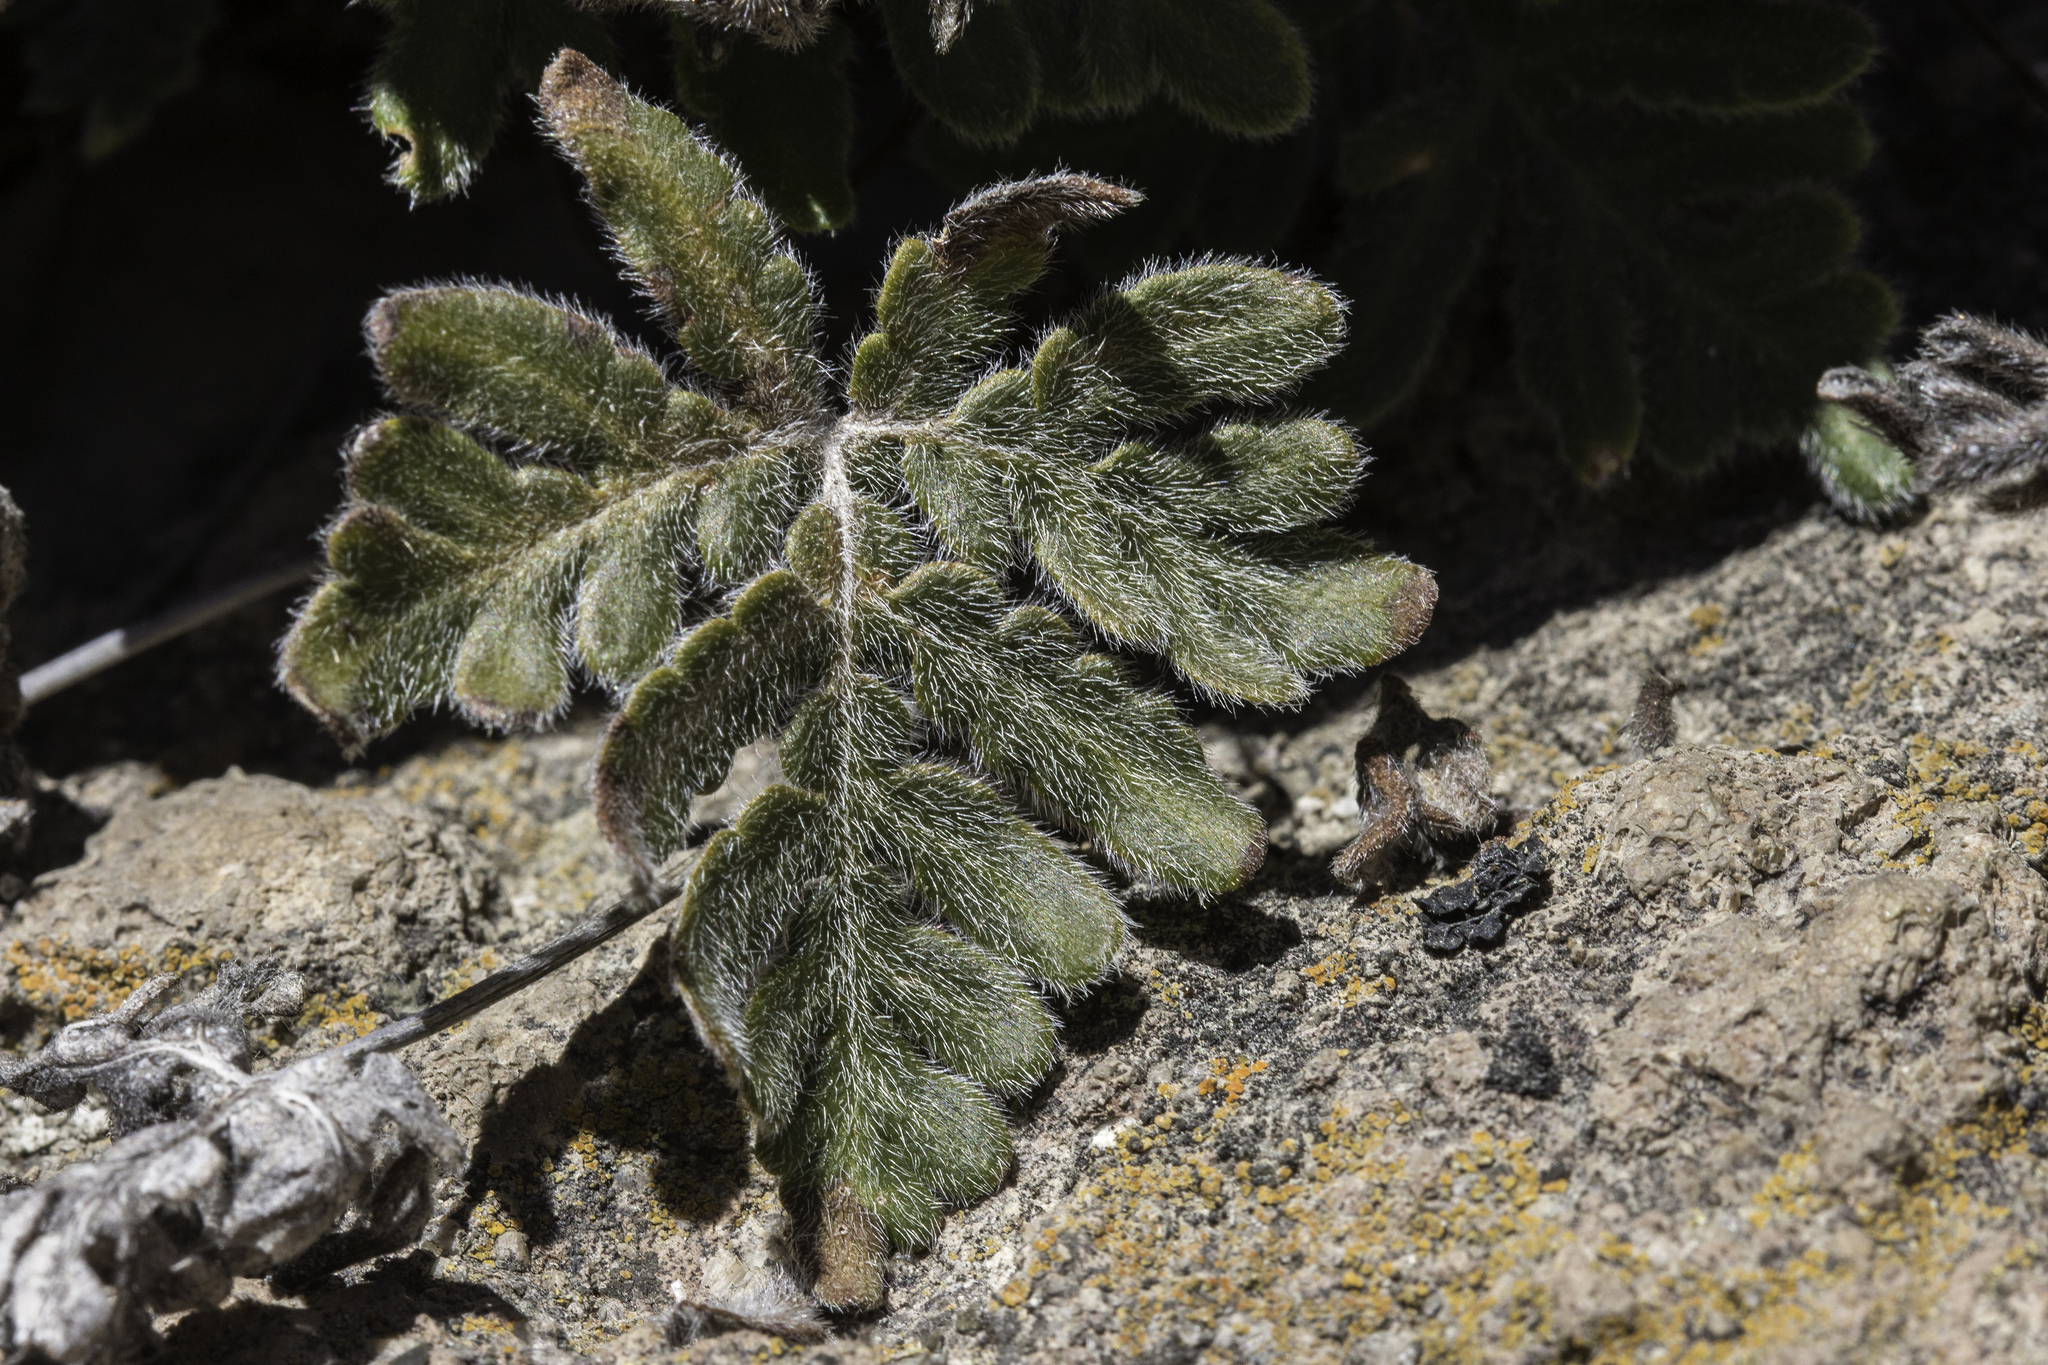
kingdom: Plantae
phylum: Tracheophyta
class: Polypodiopsida
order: Polypodiales
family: Pteridaceae
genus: Bommeria
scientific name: Bommeria hispida
